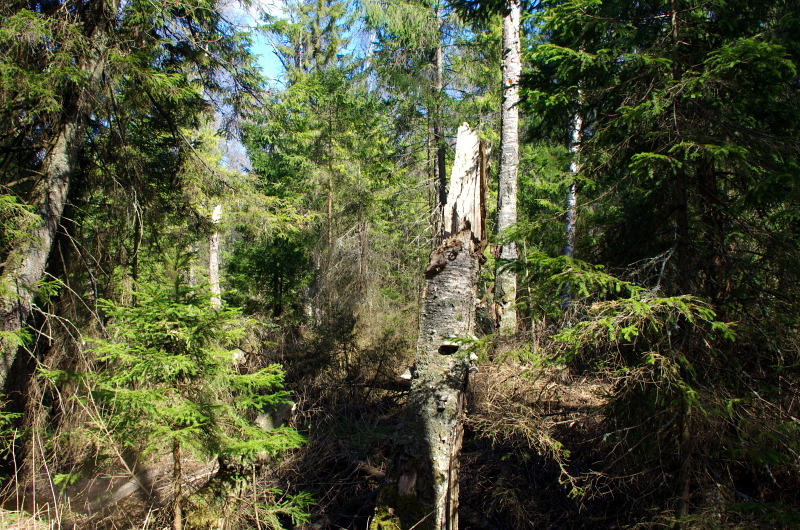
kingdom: Plantae
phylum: Tracheophyta
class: Pinopsida
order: Pinales
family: Pinaceae
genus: Picea
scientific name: Picea abies
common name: Norway spruce
